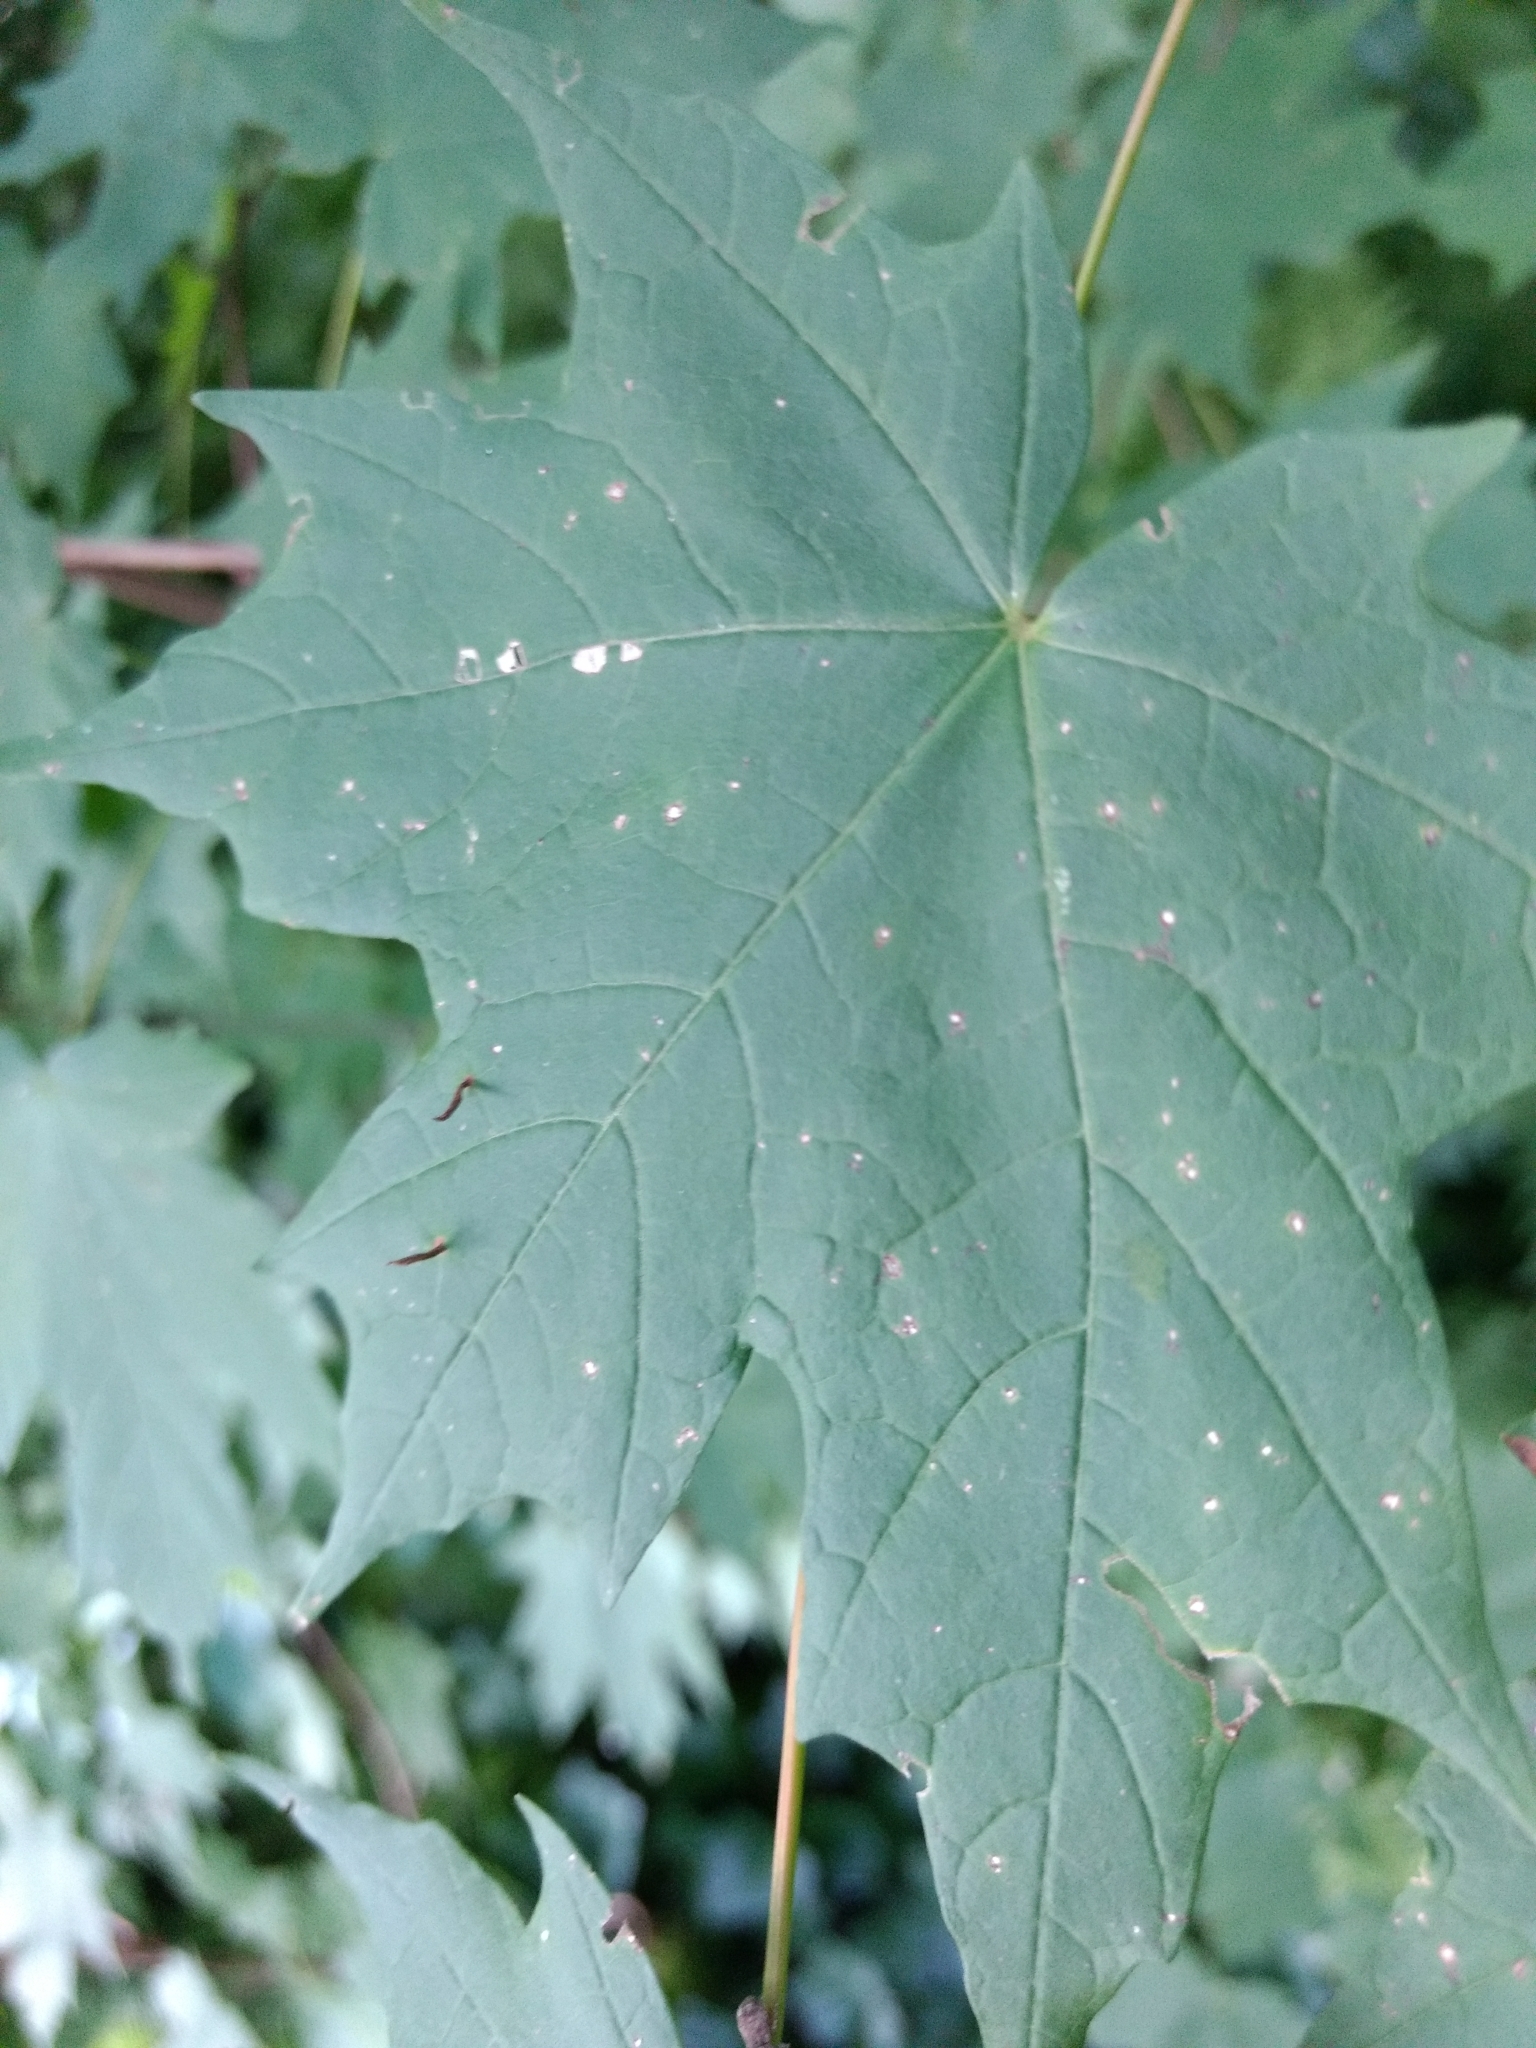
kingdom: Animalia
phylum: Arthropoda
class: Arachnida
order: Trombidiformes
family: Eriophyidae
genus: Vasates
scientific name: Vasates aceriscrumena
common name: Maple spindle gall mite
